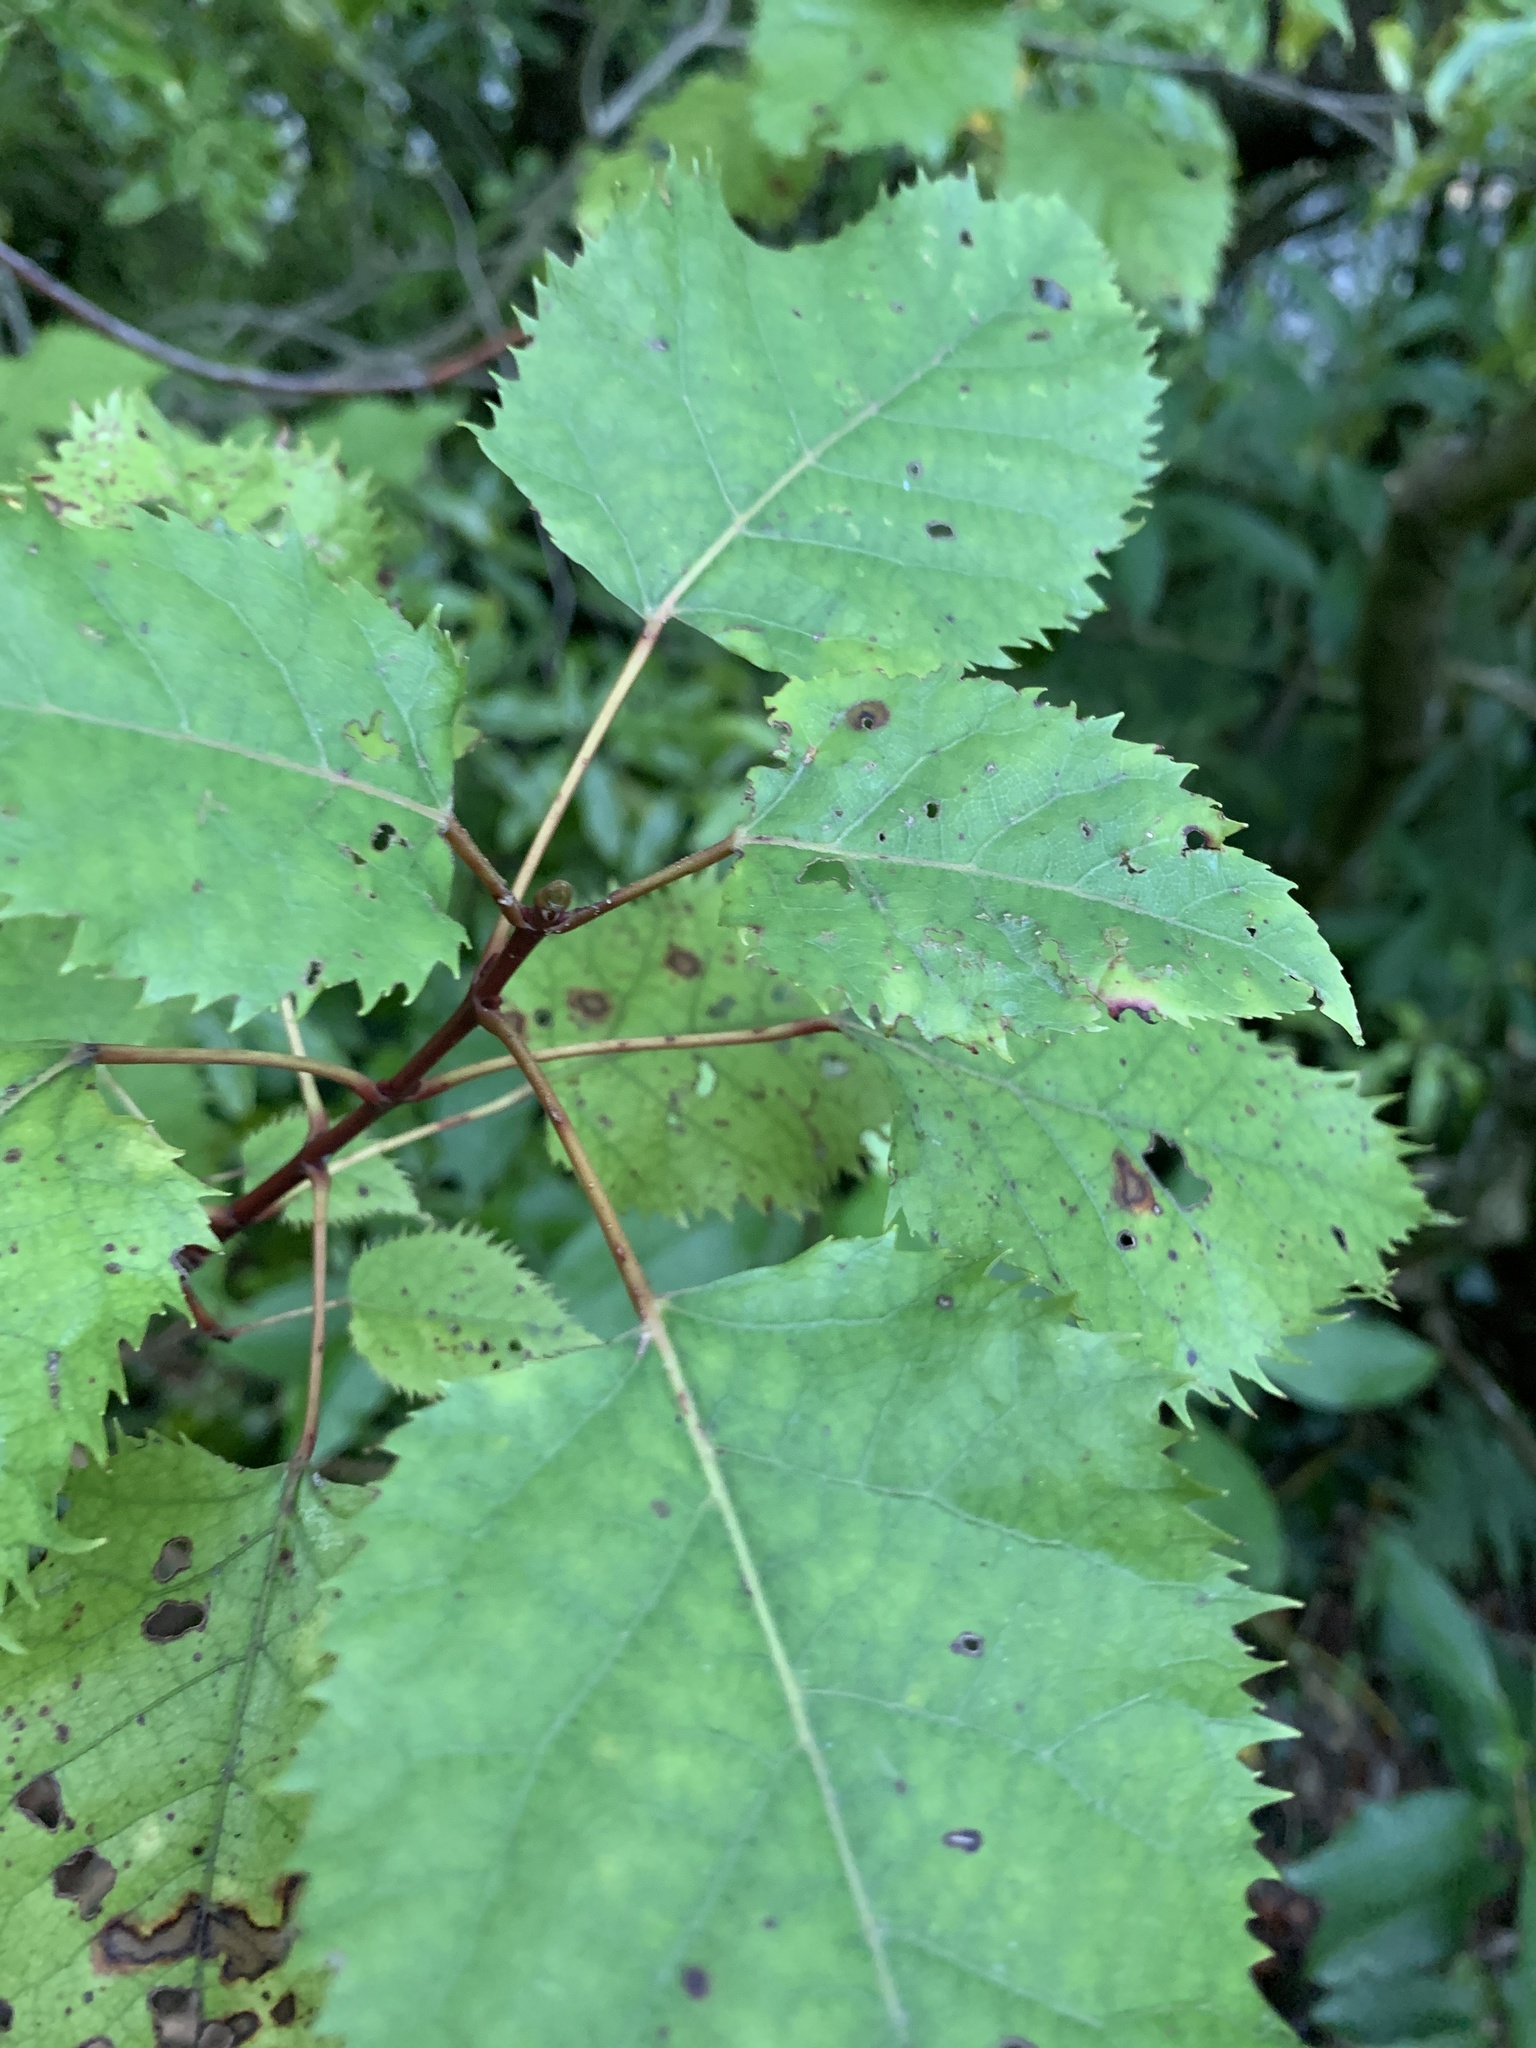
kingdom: Plantae
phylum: Tracheophyta
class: Magnoliopsida
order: Oxalidales
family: Elaeocarpaceae
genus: Aristotelia
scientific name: Aristotelia serrata
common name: New zealand wineberry
